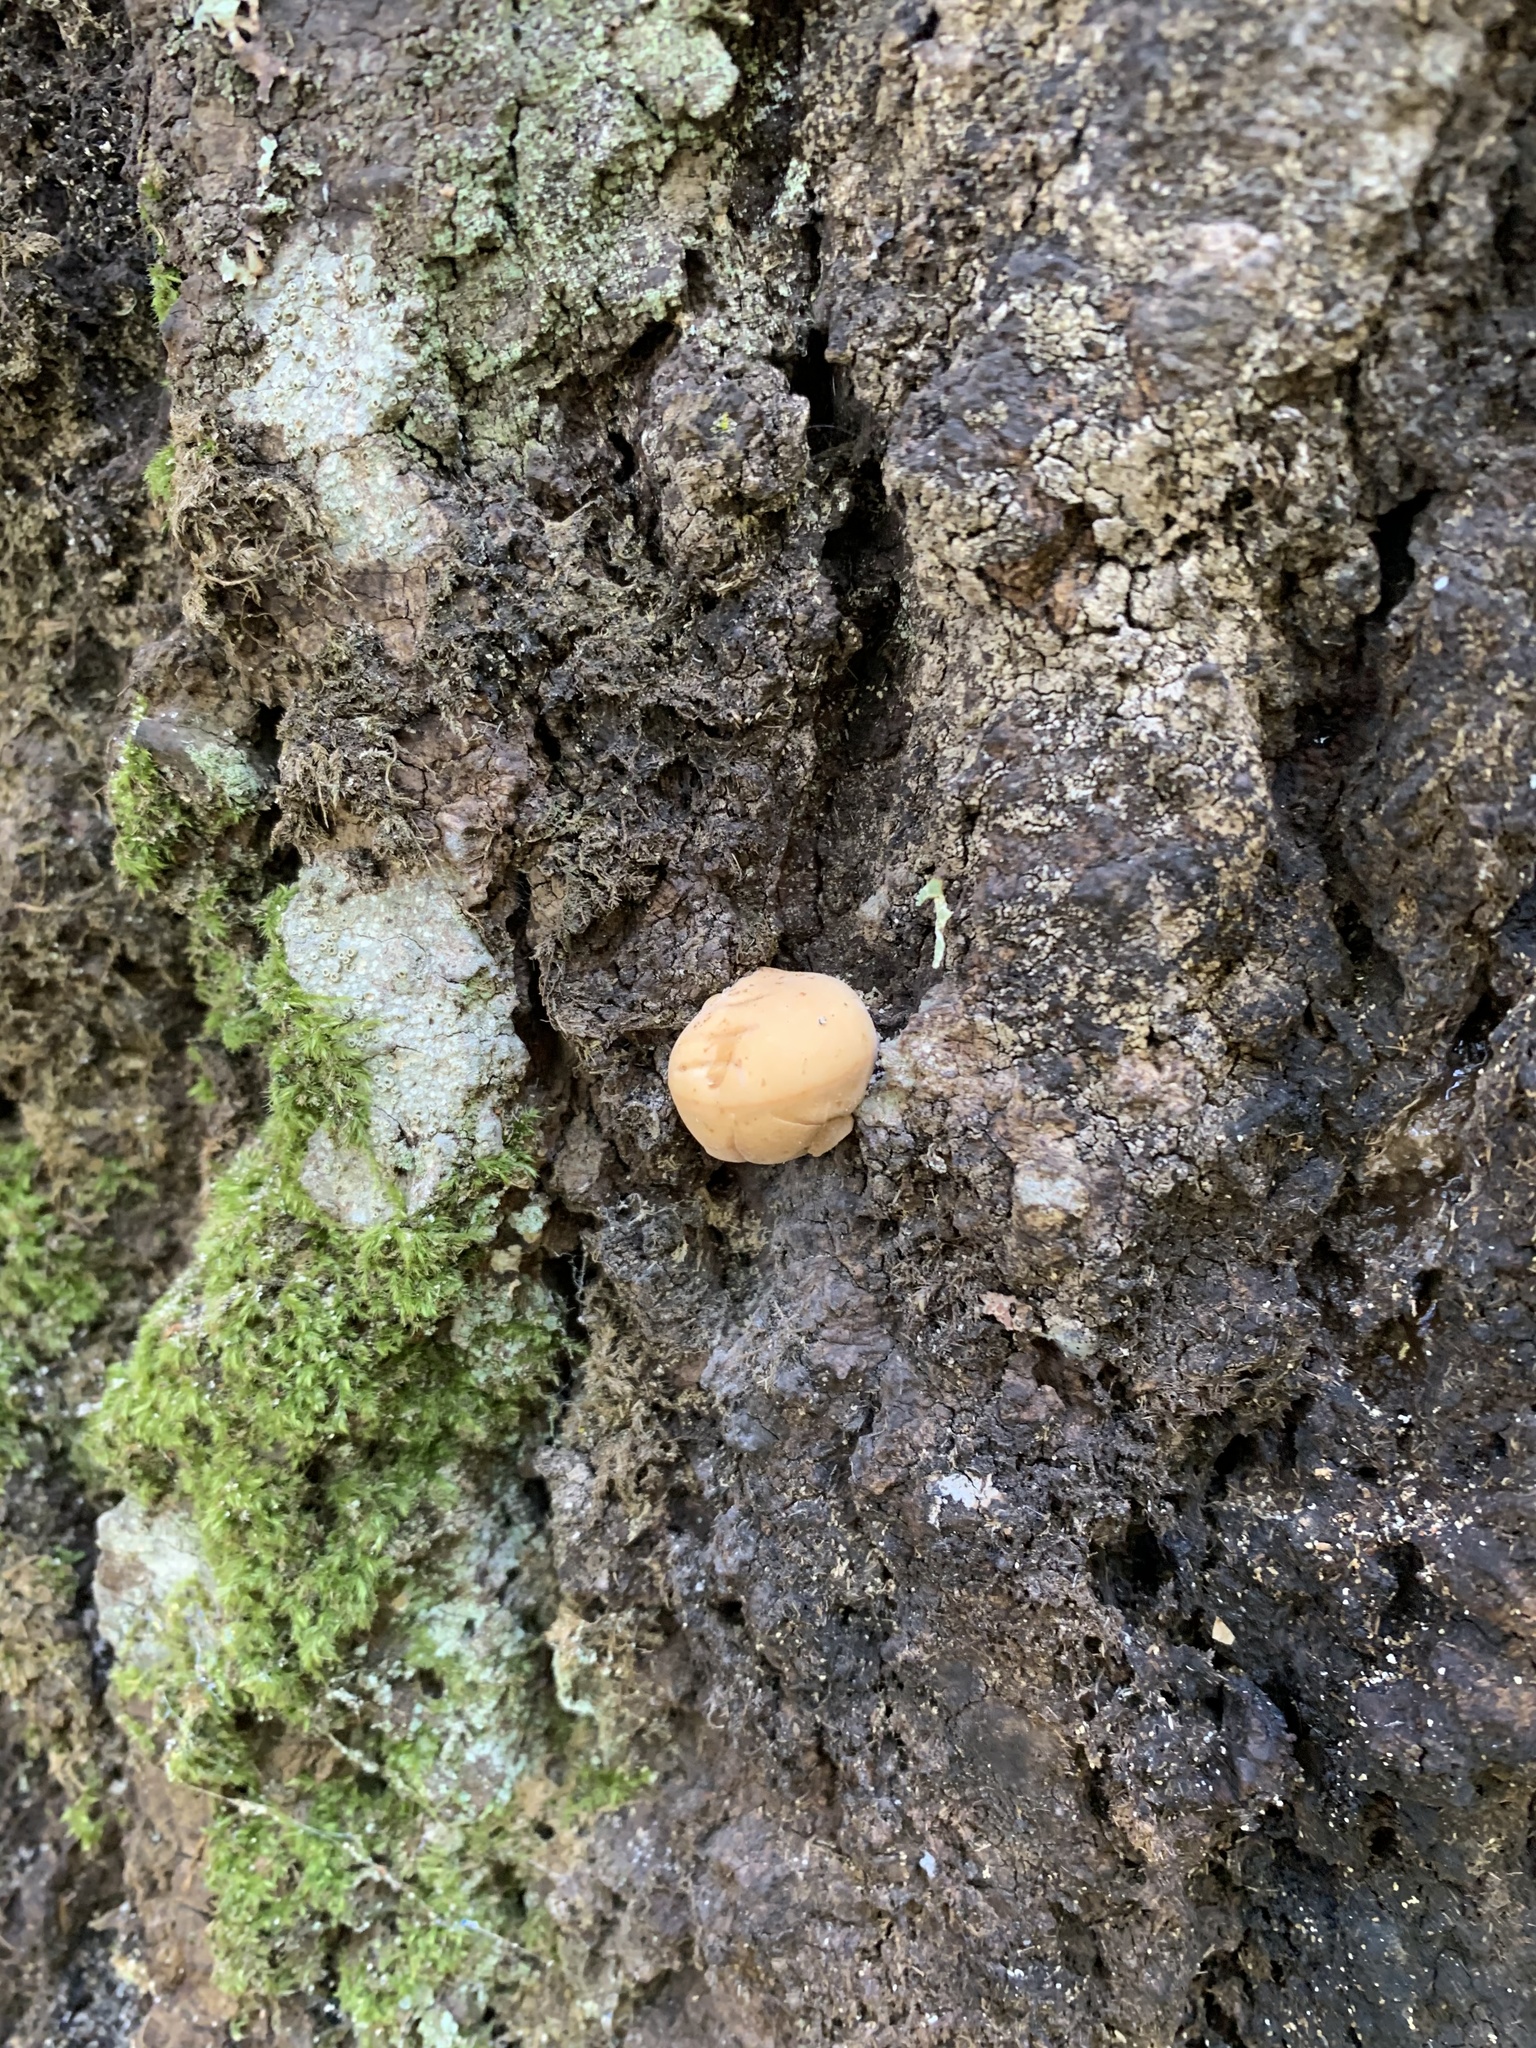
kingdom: Fungi
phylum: Basidiomycota
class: Agaricomycetes
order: Polyporales
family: Fomitopsidaceae
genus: Fomitopsis
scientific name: Fomitopsis officinalis
